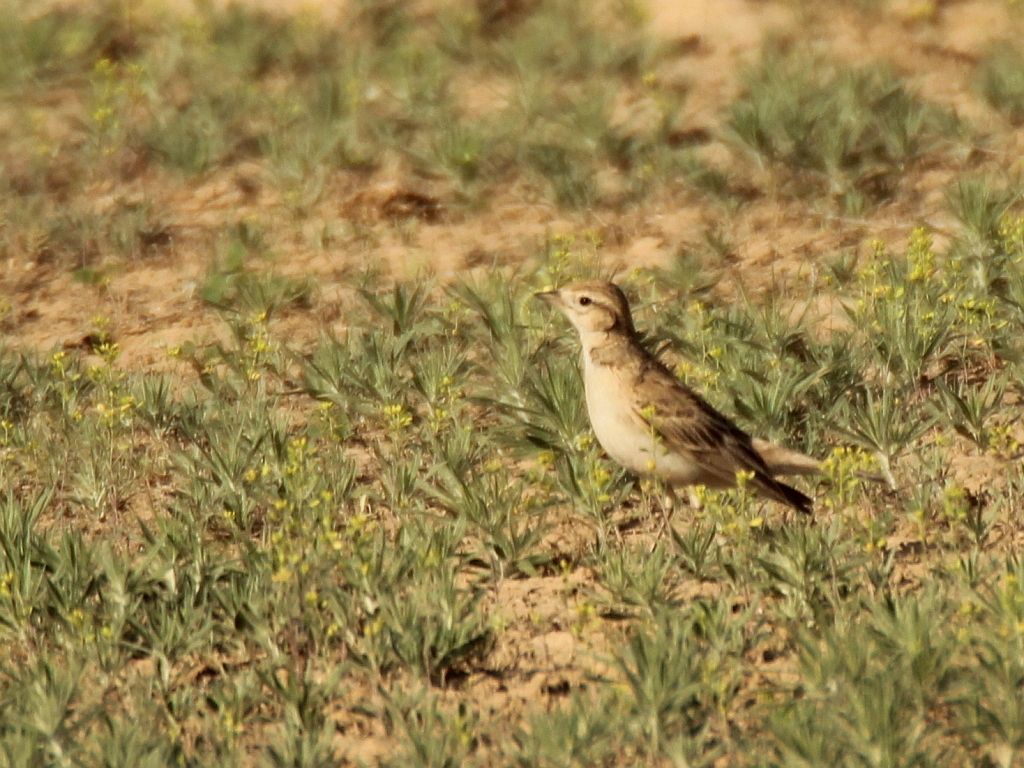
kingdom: Animalia
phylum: Chordata
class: Aves
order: Passeriformes
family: Alaudidae
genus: Calandrella
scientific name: Calandrella brachydactyla
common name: Greater short-toed lark
